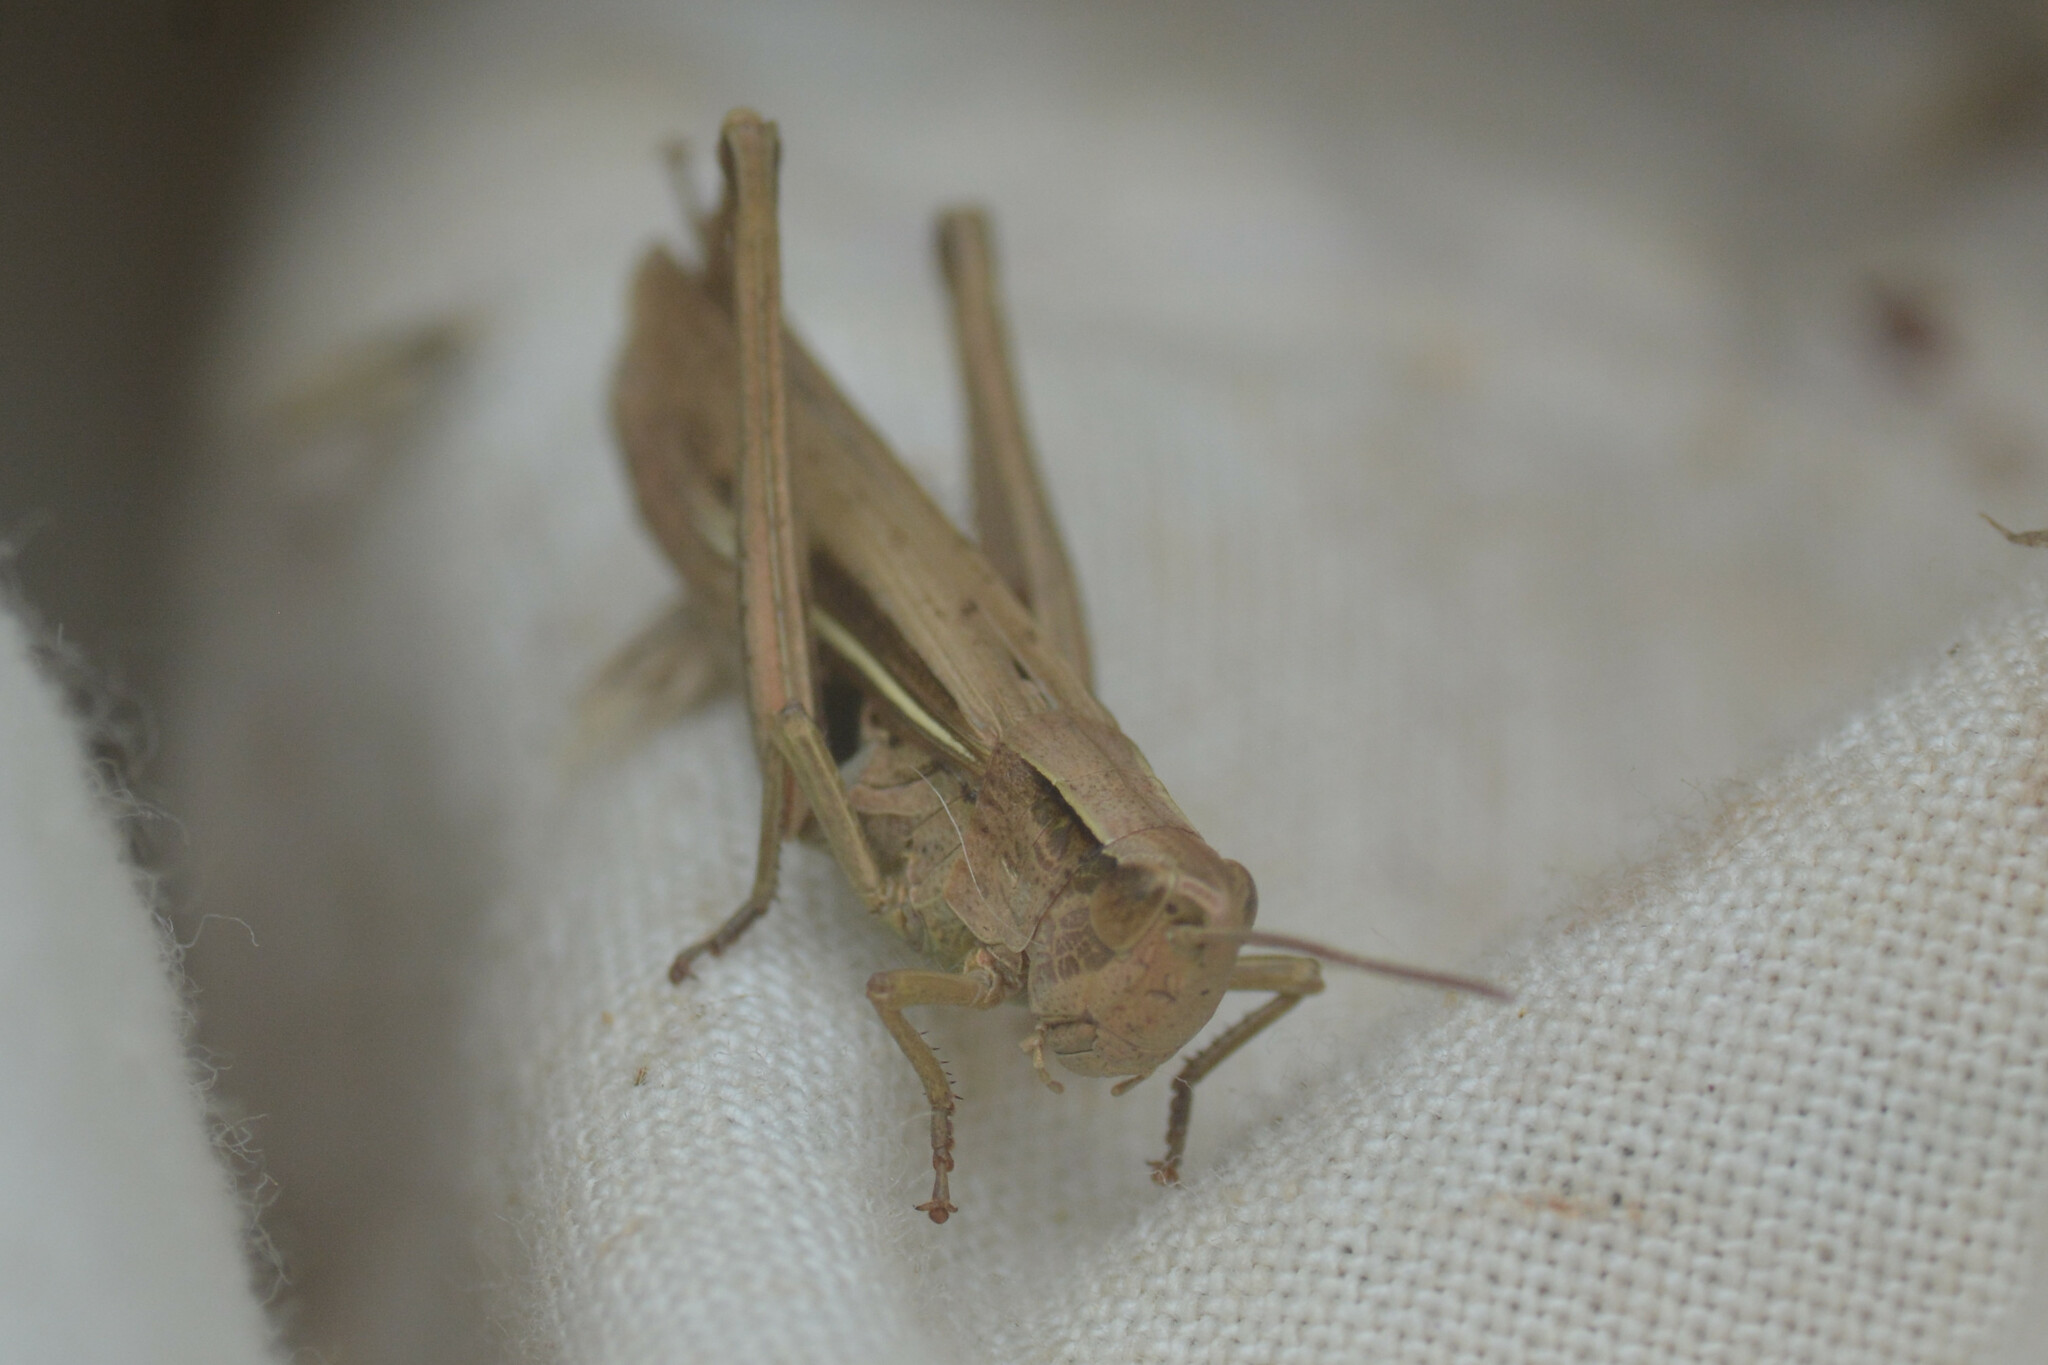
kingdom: Animalia
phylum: Arthropoda
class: Insecta
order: Orthoptera
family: Acrididae
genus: Chorthippus
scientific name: Chorthippus albomarginatus
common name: Lesser marsh grasshopper
